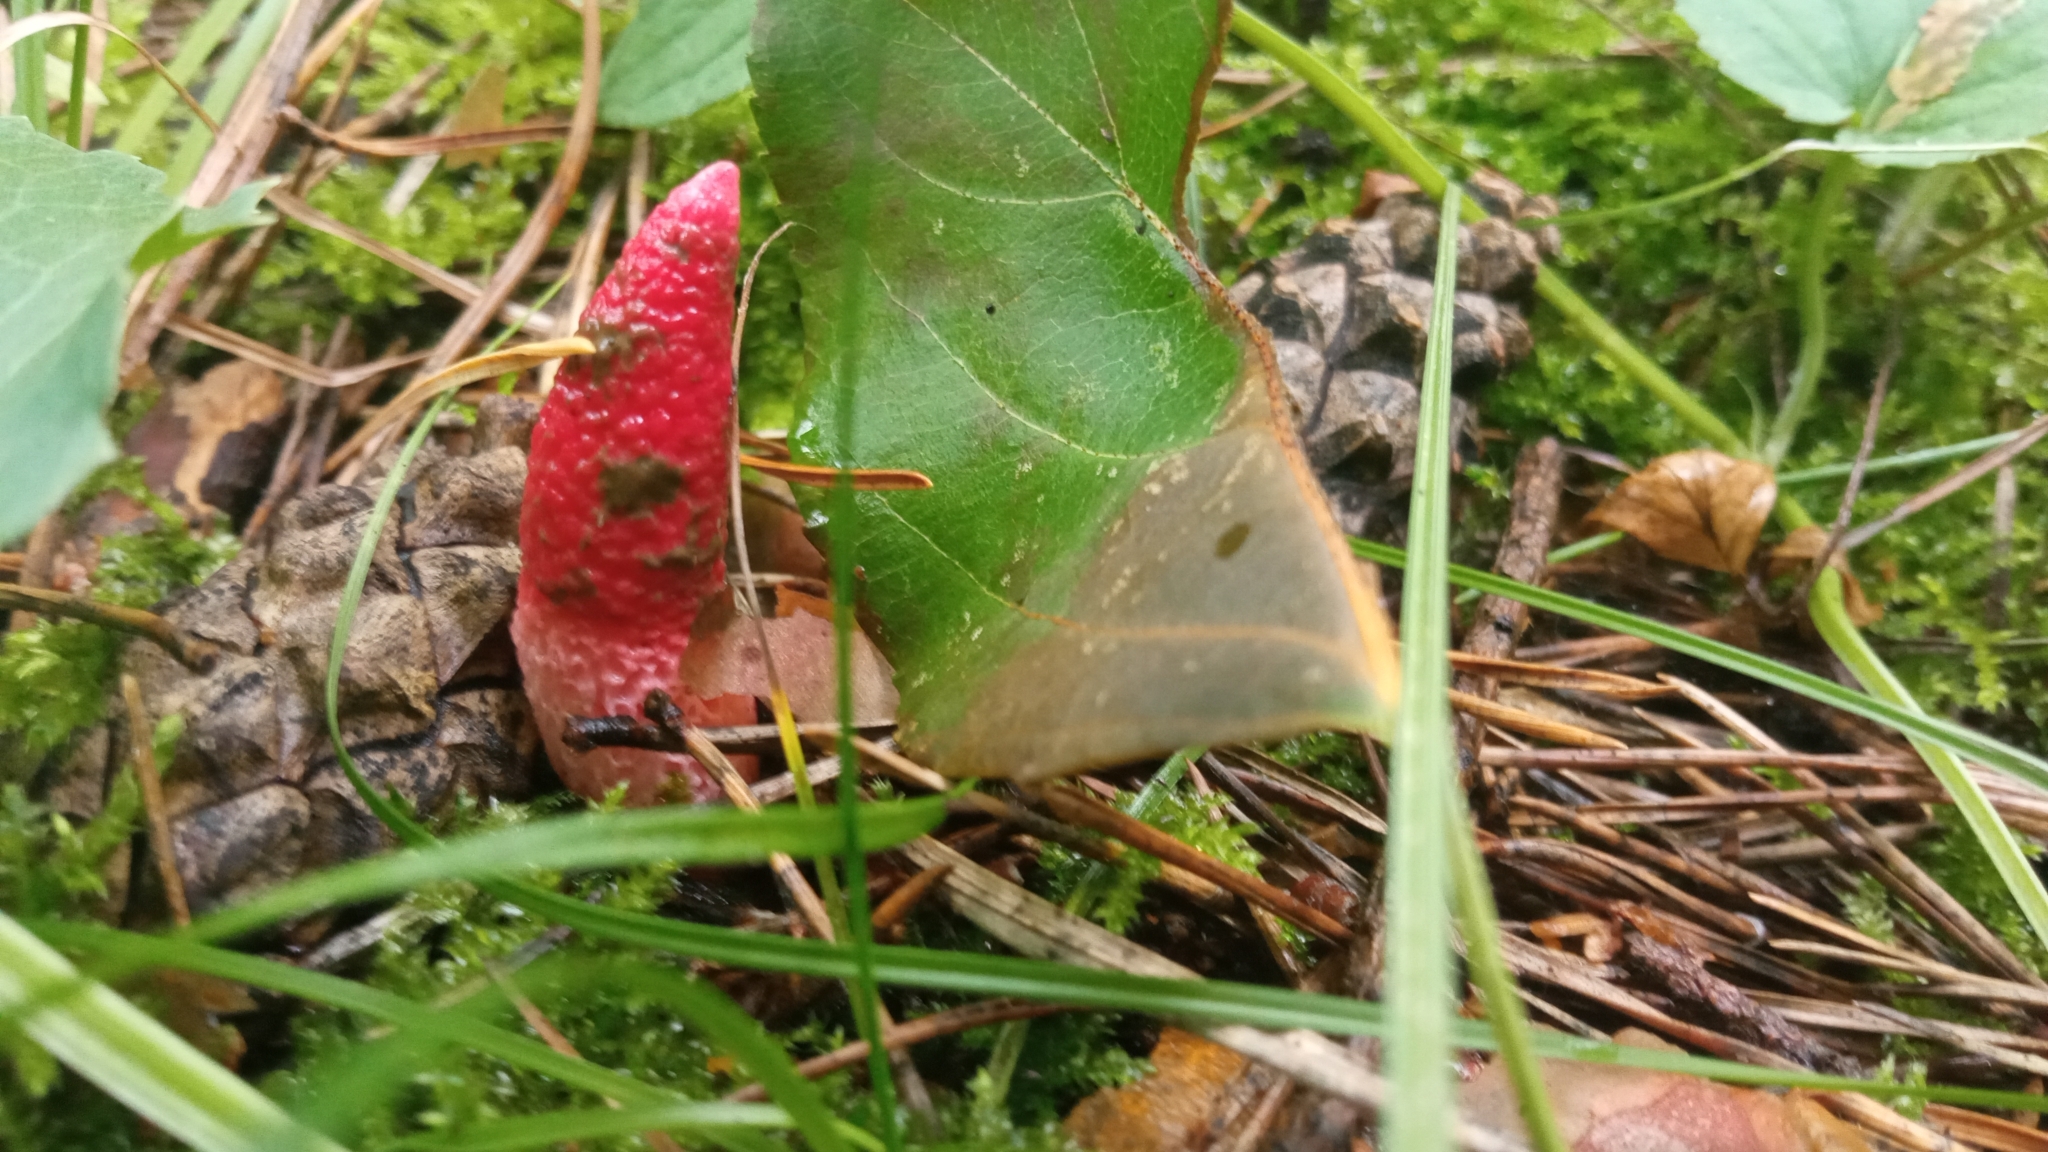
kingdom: Fungi
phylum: Basidiomycota
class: Agaricomycetes
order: Phallales
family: Phallaceae
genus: Mutinus
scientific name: Mutinus ravenelii
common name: Red stinkhorn
